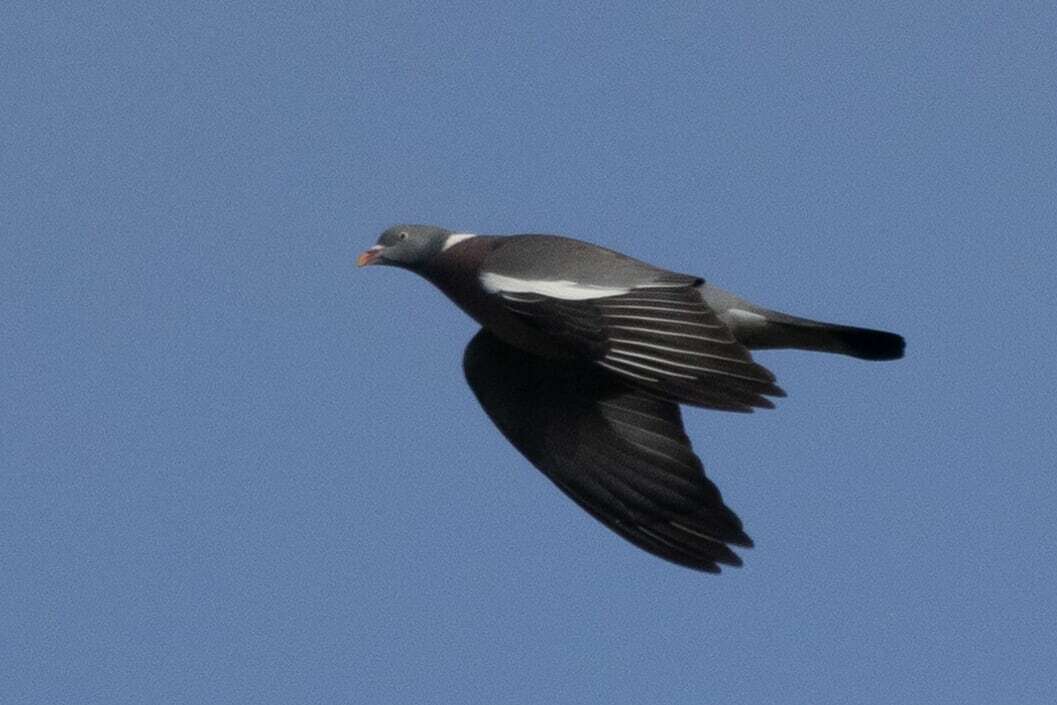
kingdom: Animalia
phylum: Chordata
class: Aves
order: Columbiformes
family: Columbidae
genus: Columba
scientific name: Columba palumbus
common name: Common wood pigeon
